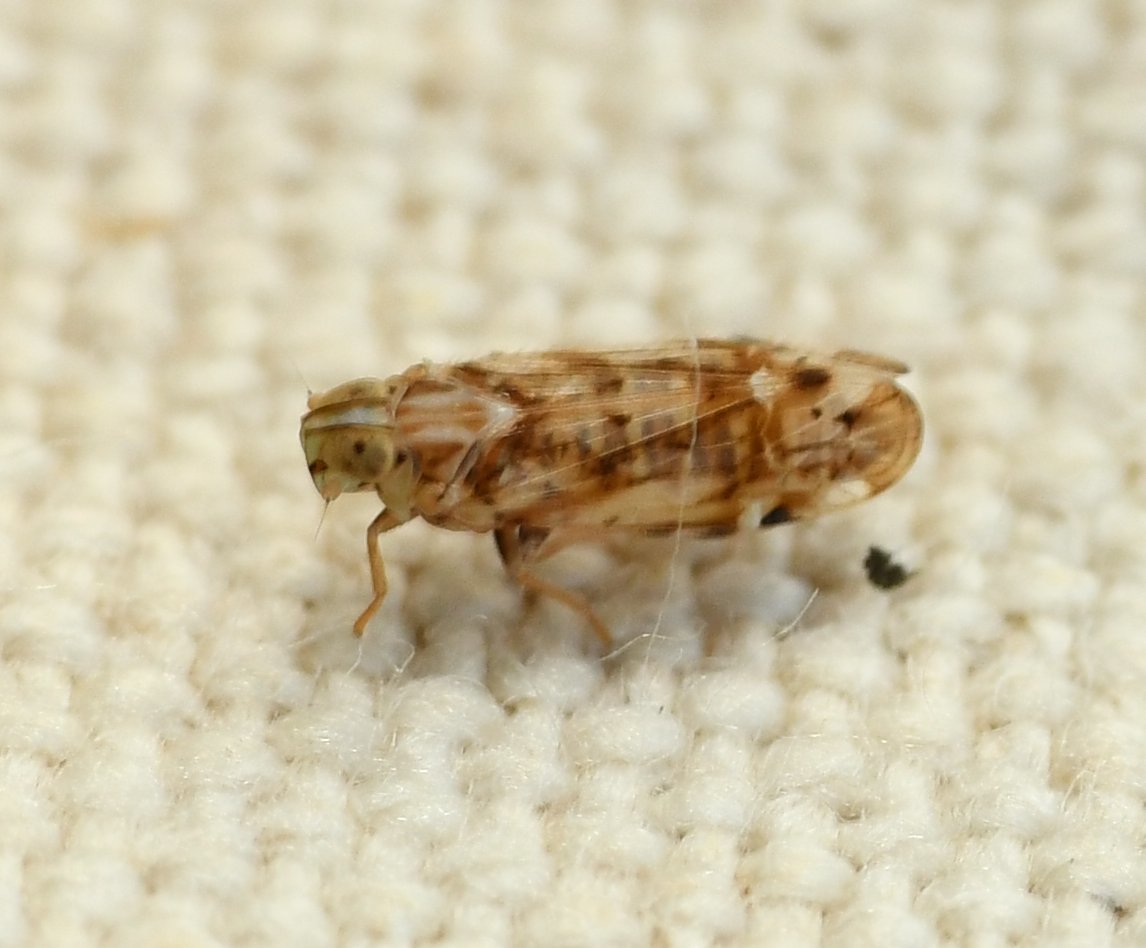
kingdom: Animalia
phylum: Arthropoda
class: Insecta
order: Hemiptera
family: Cixiidae
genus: Haplaxius
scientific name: Haplaxius lunatus
